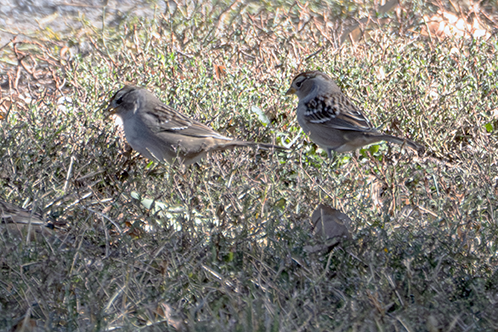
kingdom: Animalia
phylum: Chordata
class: Aves
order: Passeriformes
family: Passerellidae
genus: Zonotrichia
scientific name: Zonotrichia leucophrys
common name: White-crowned sparrow
